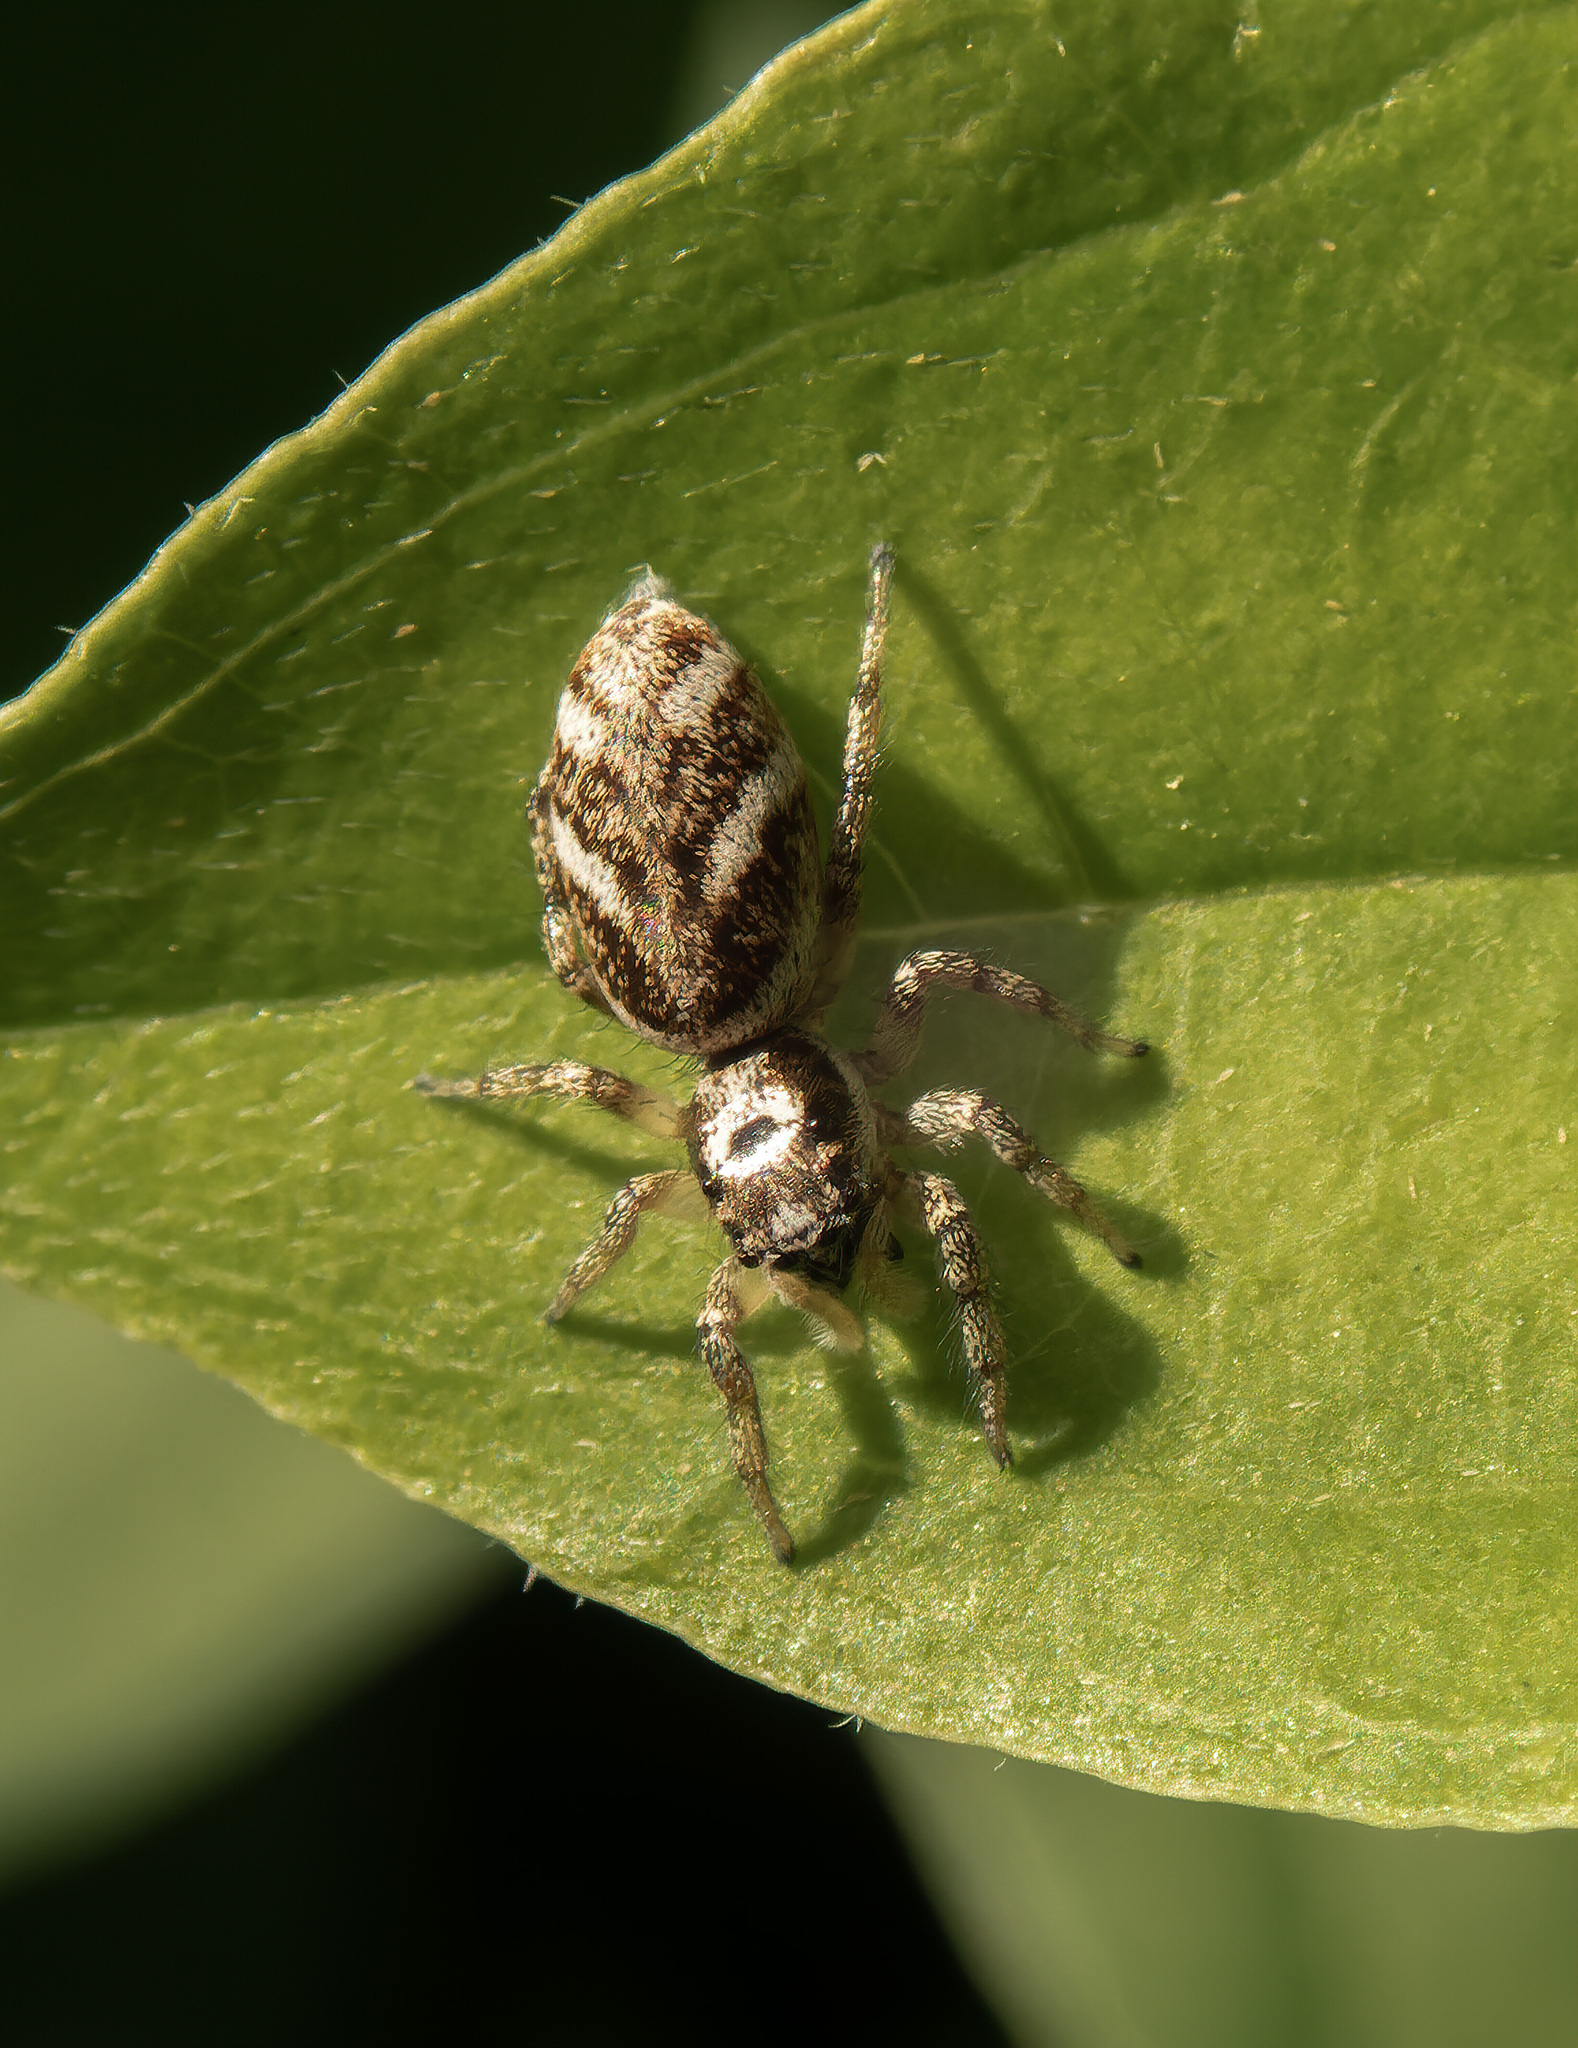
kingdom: Animalia
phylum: Arthropoda
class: Arachnida
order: Araneae
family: Salticidae
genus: Salticus
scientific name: Salticus scenicus
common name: Zebra jumper
